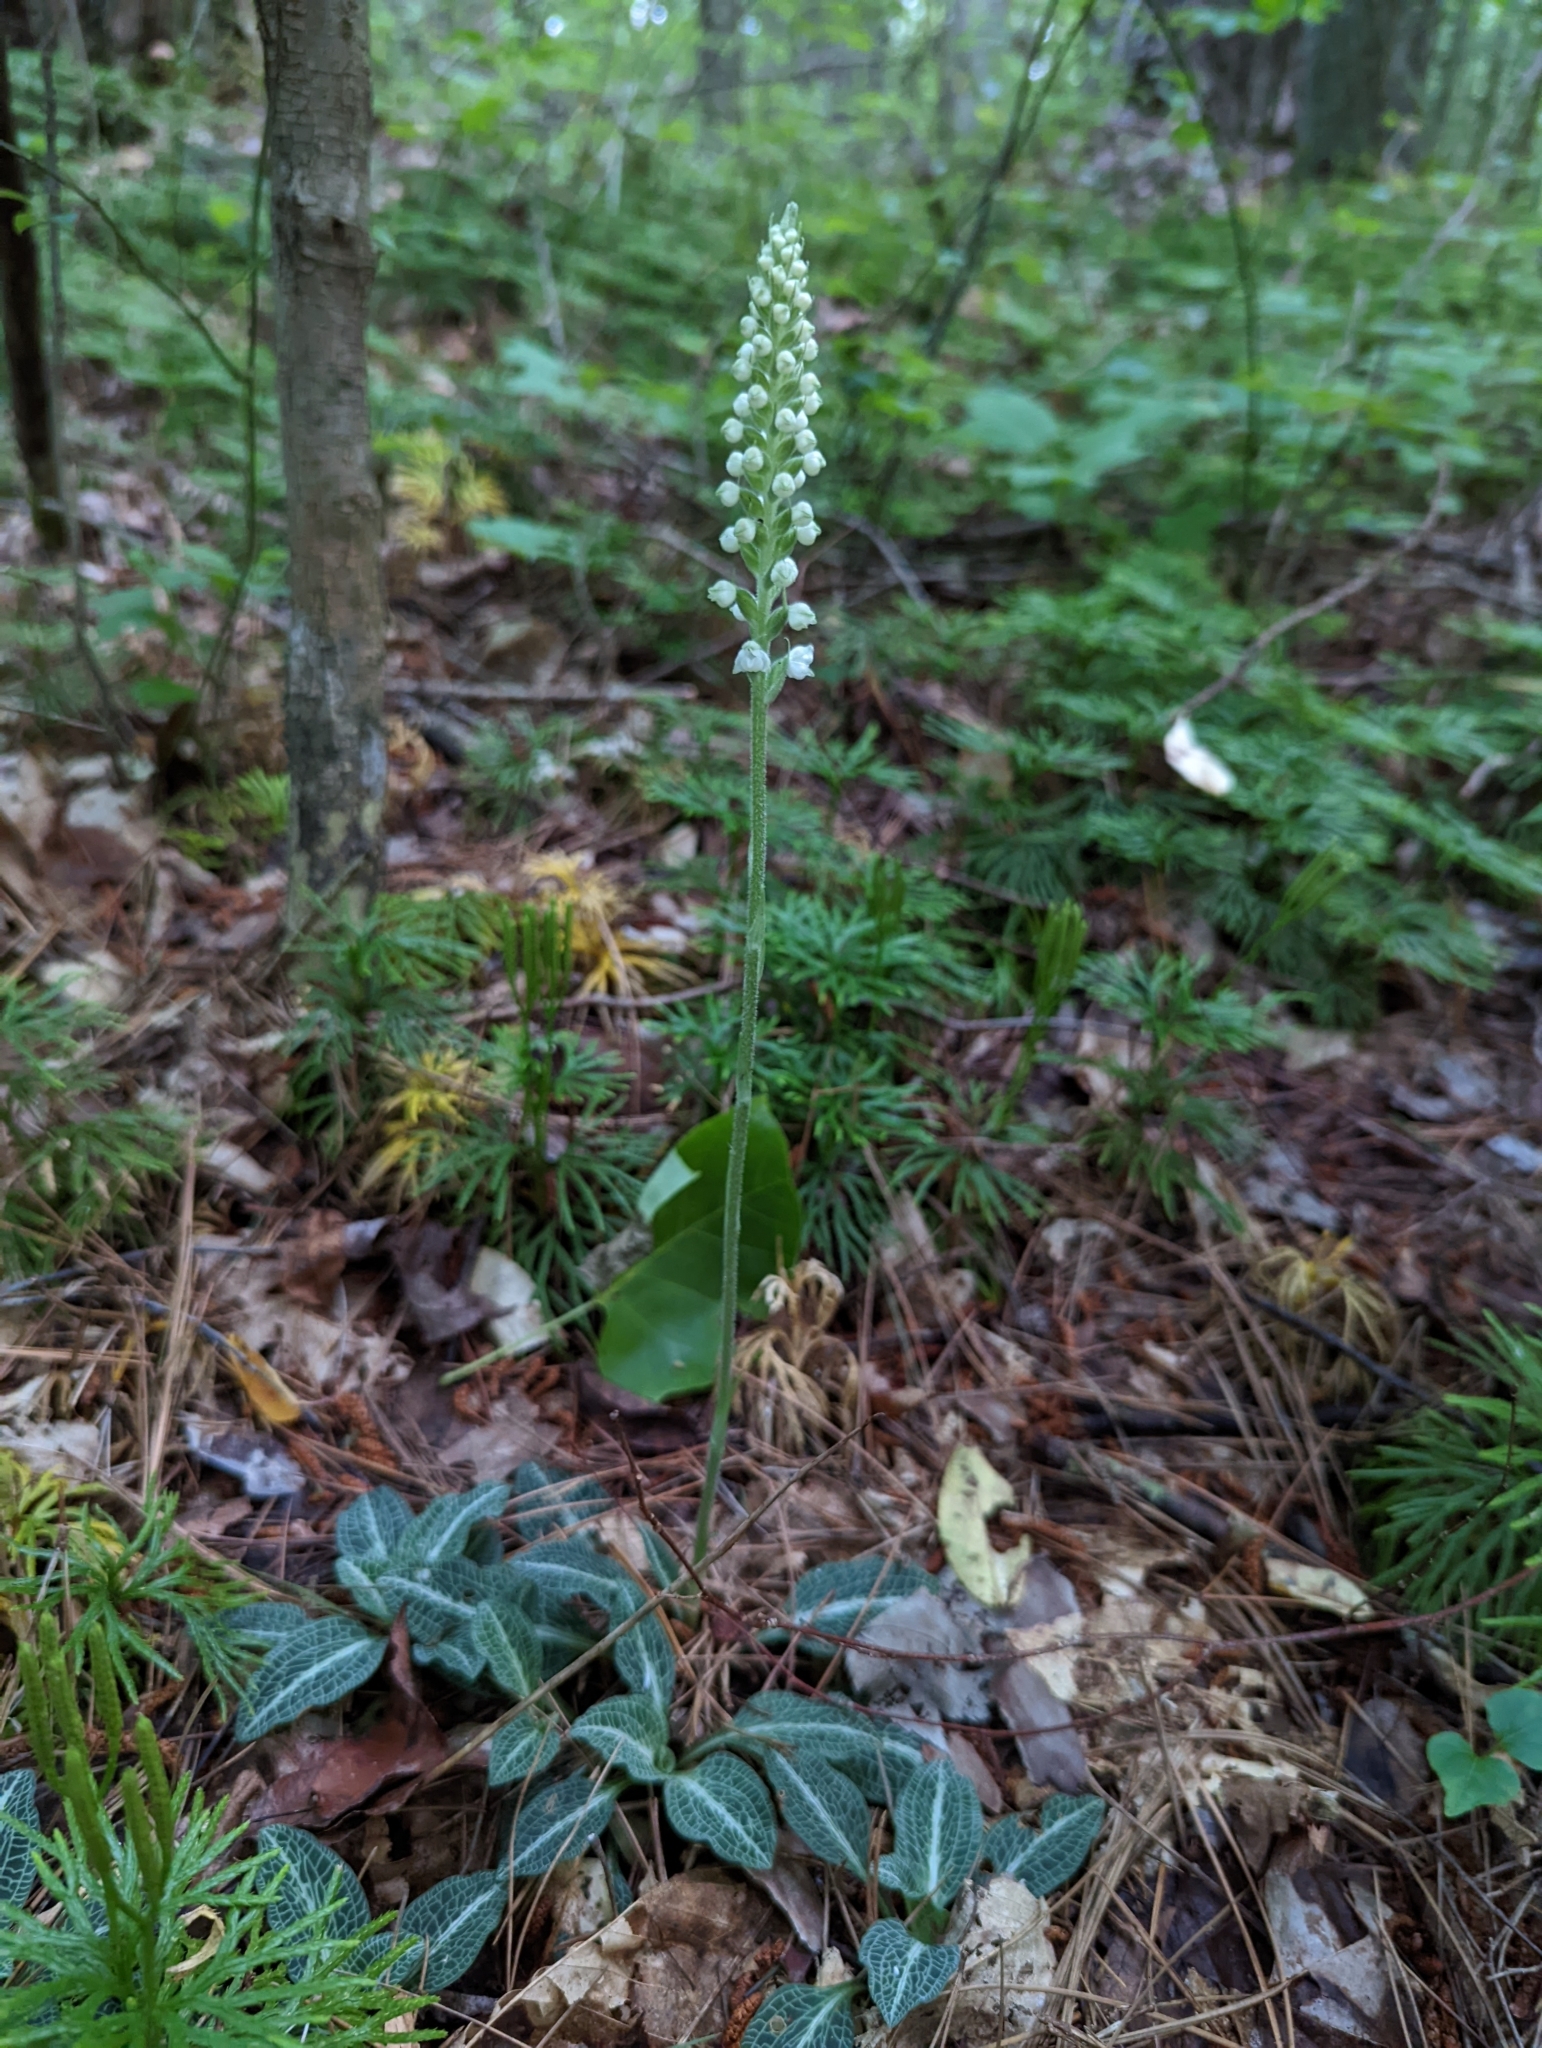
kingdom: Plantae
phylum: Tracheophyta
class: Liliopsida
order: Asparagales
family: Orchidaceae
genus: Goodyera
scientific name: Goodyera pubescens
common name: Downy rattlesnake-plantain
